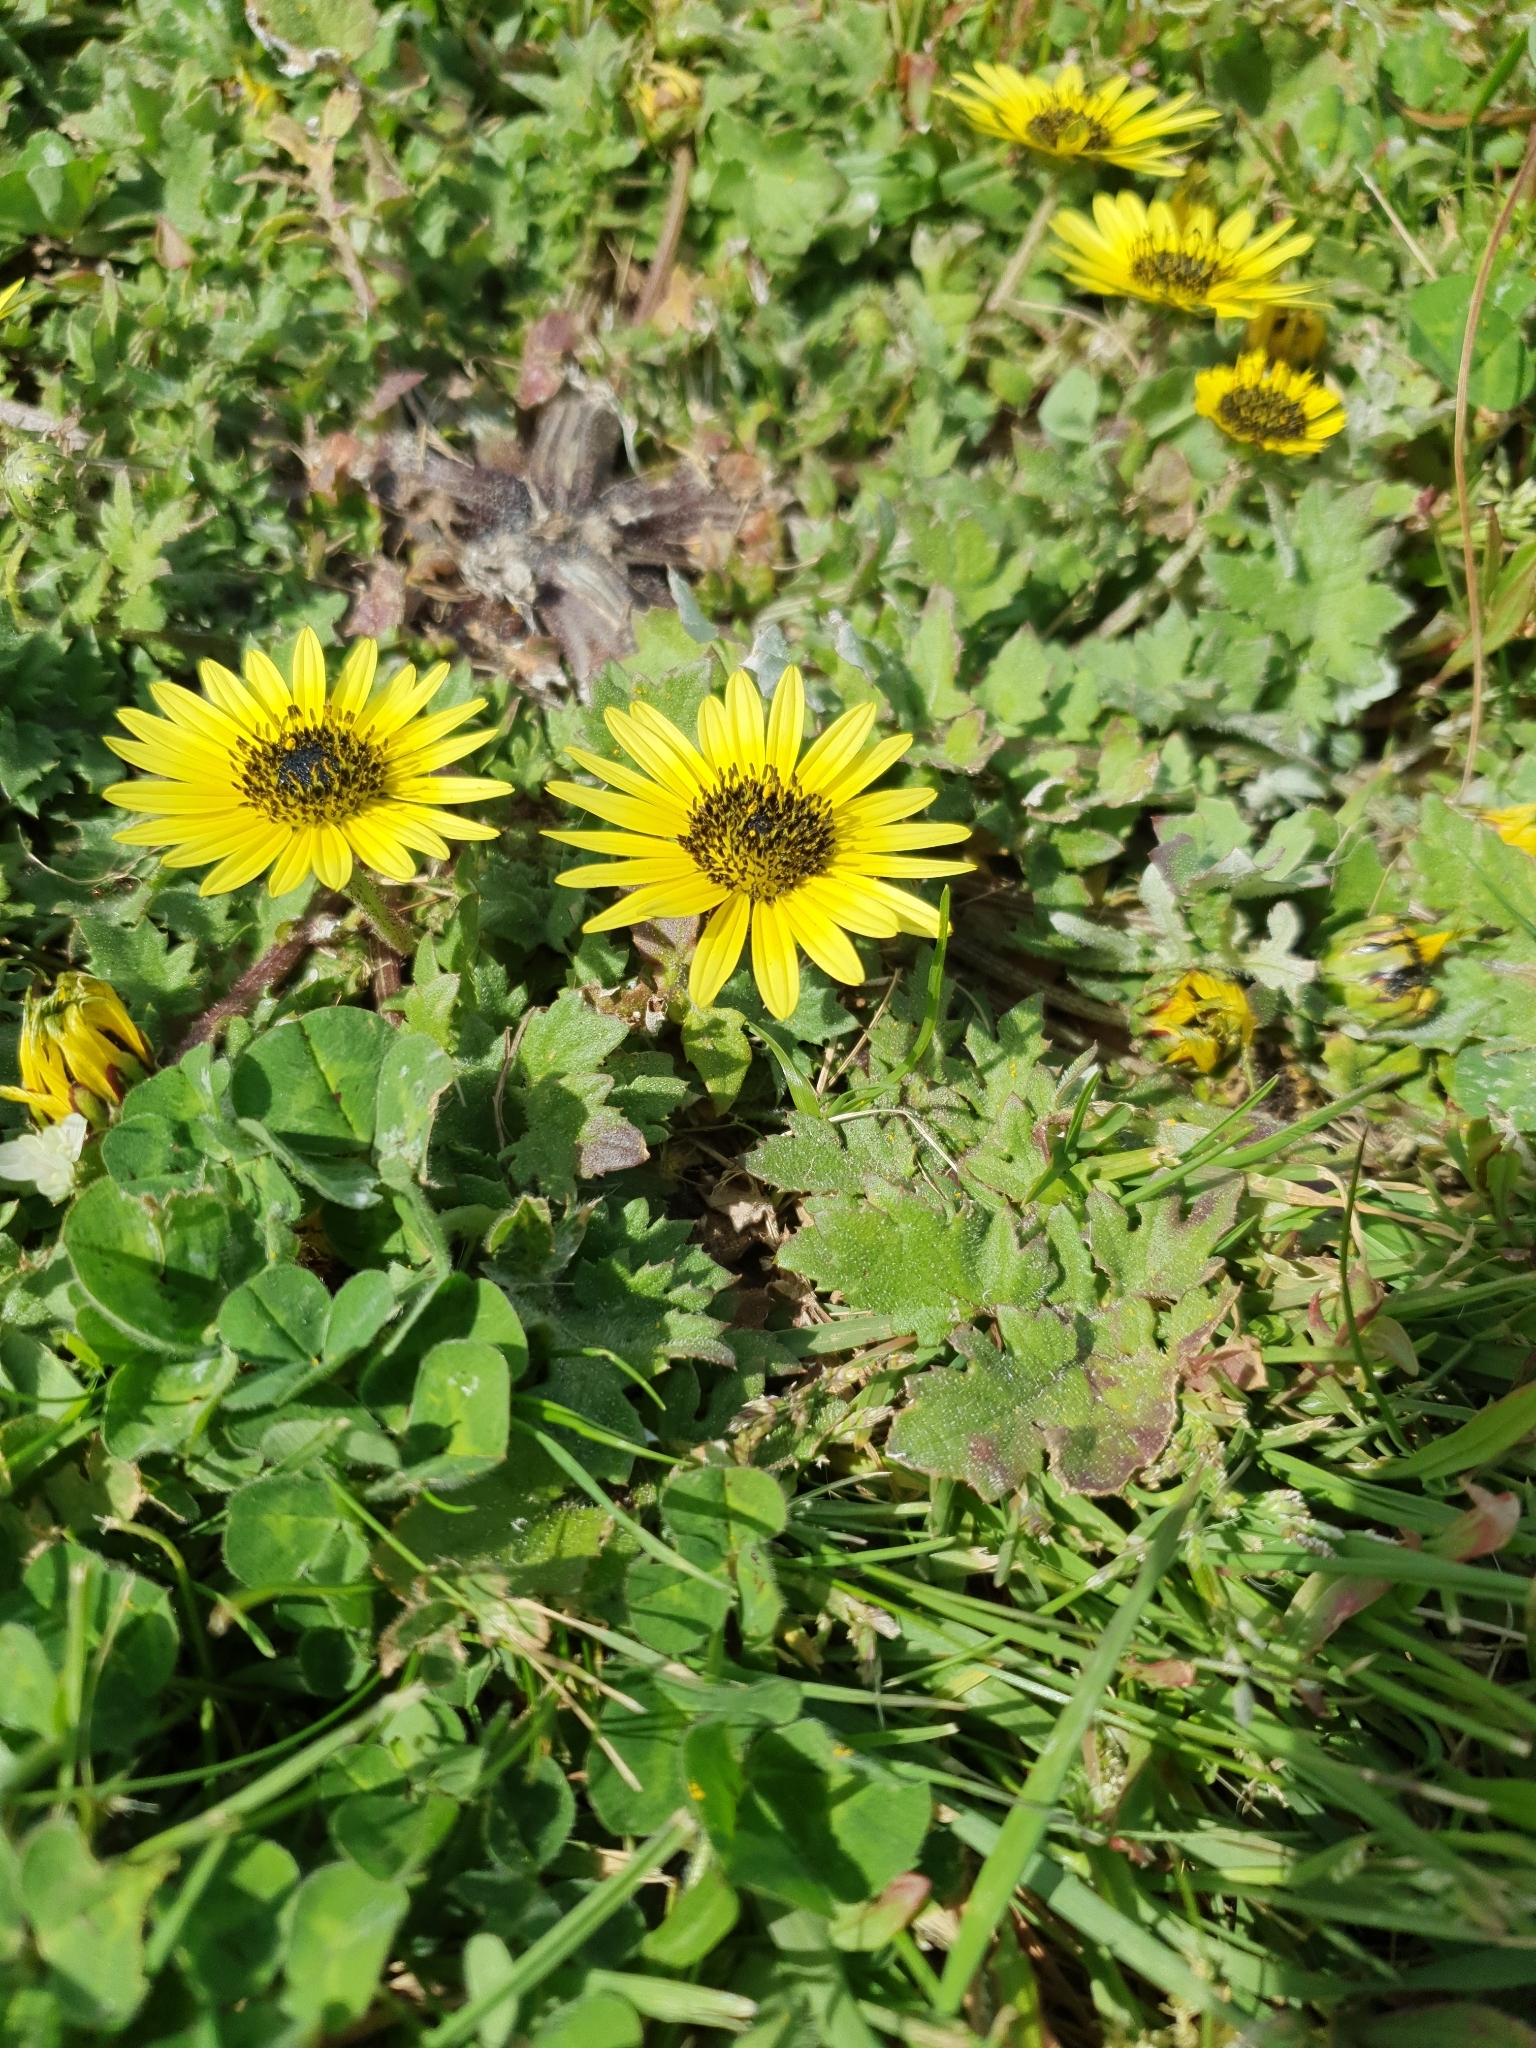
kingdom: Plantae
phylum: Tracheophyta
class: Magnoliopsida
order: Asterales
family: Asteraceae
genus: Arctotheca
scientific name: Arctotheca calendula
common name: Capeweed
